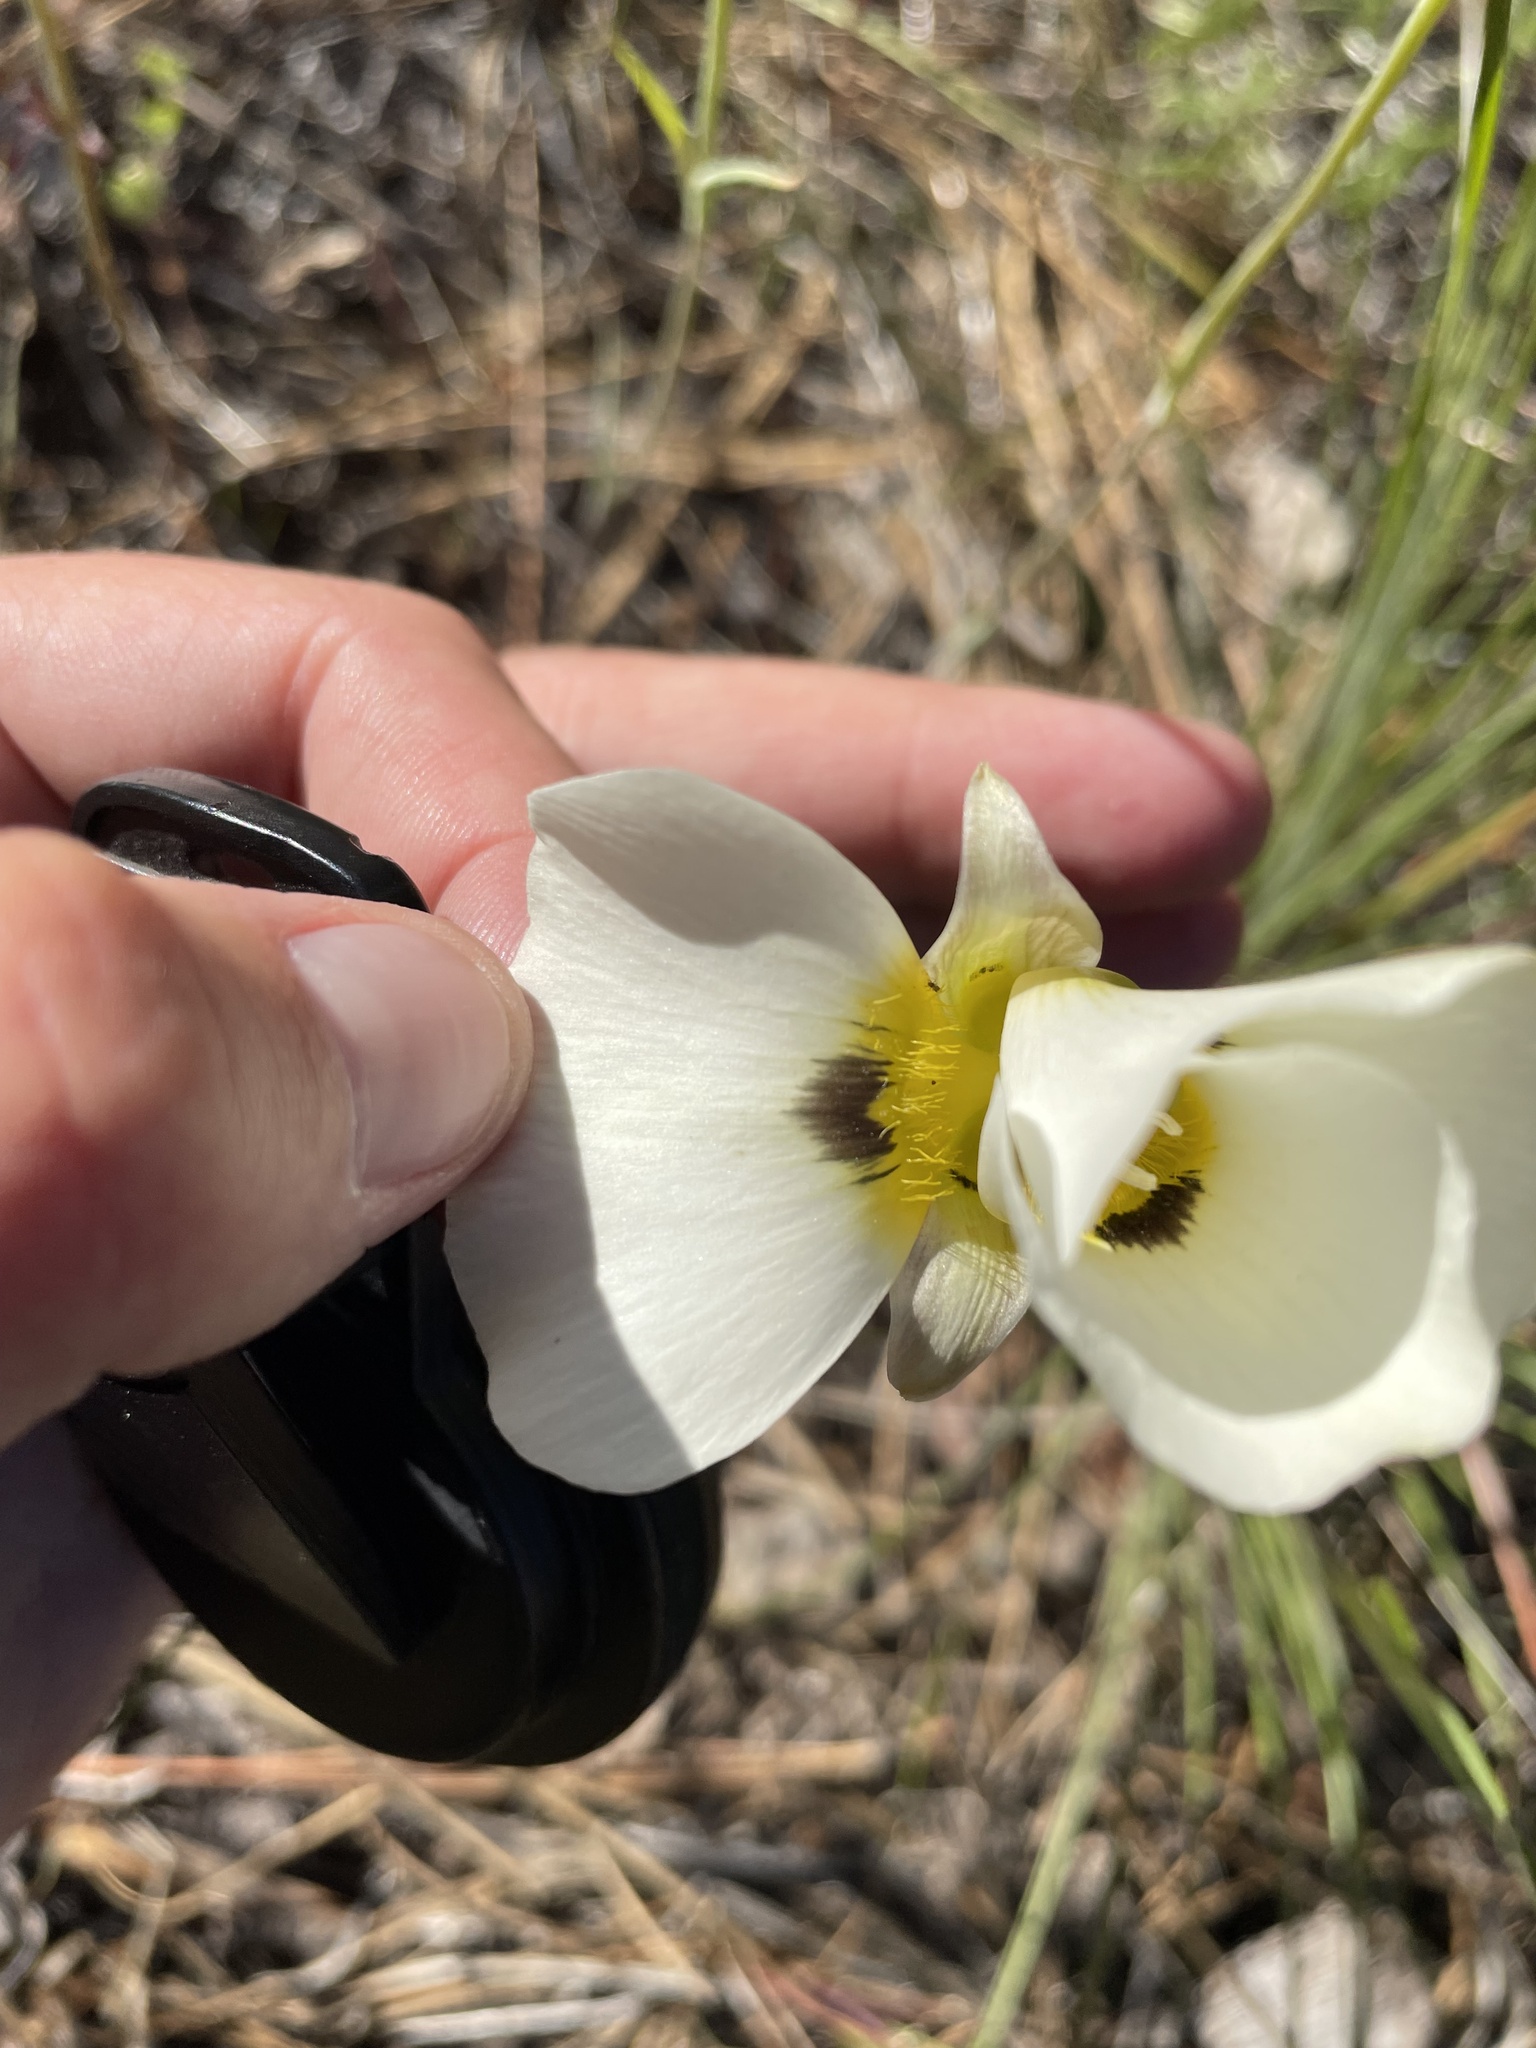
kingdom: Plantae
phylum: Tracheophyta
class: Liliopsida
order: Liliales
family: Liliaceae
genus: Calochortus
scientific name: Calochortus leichtlinii
